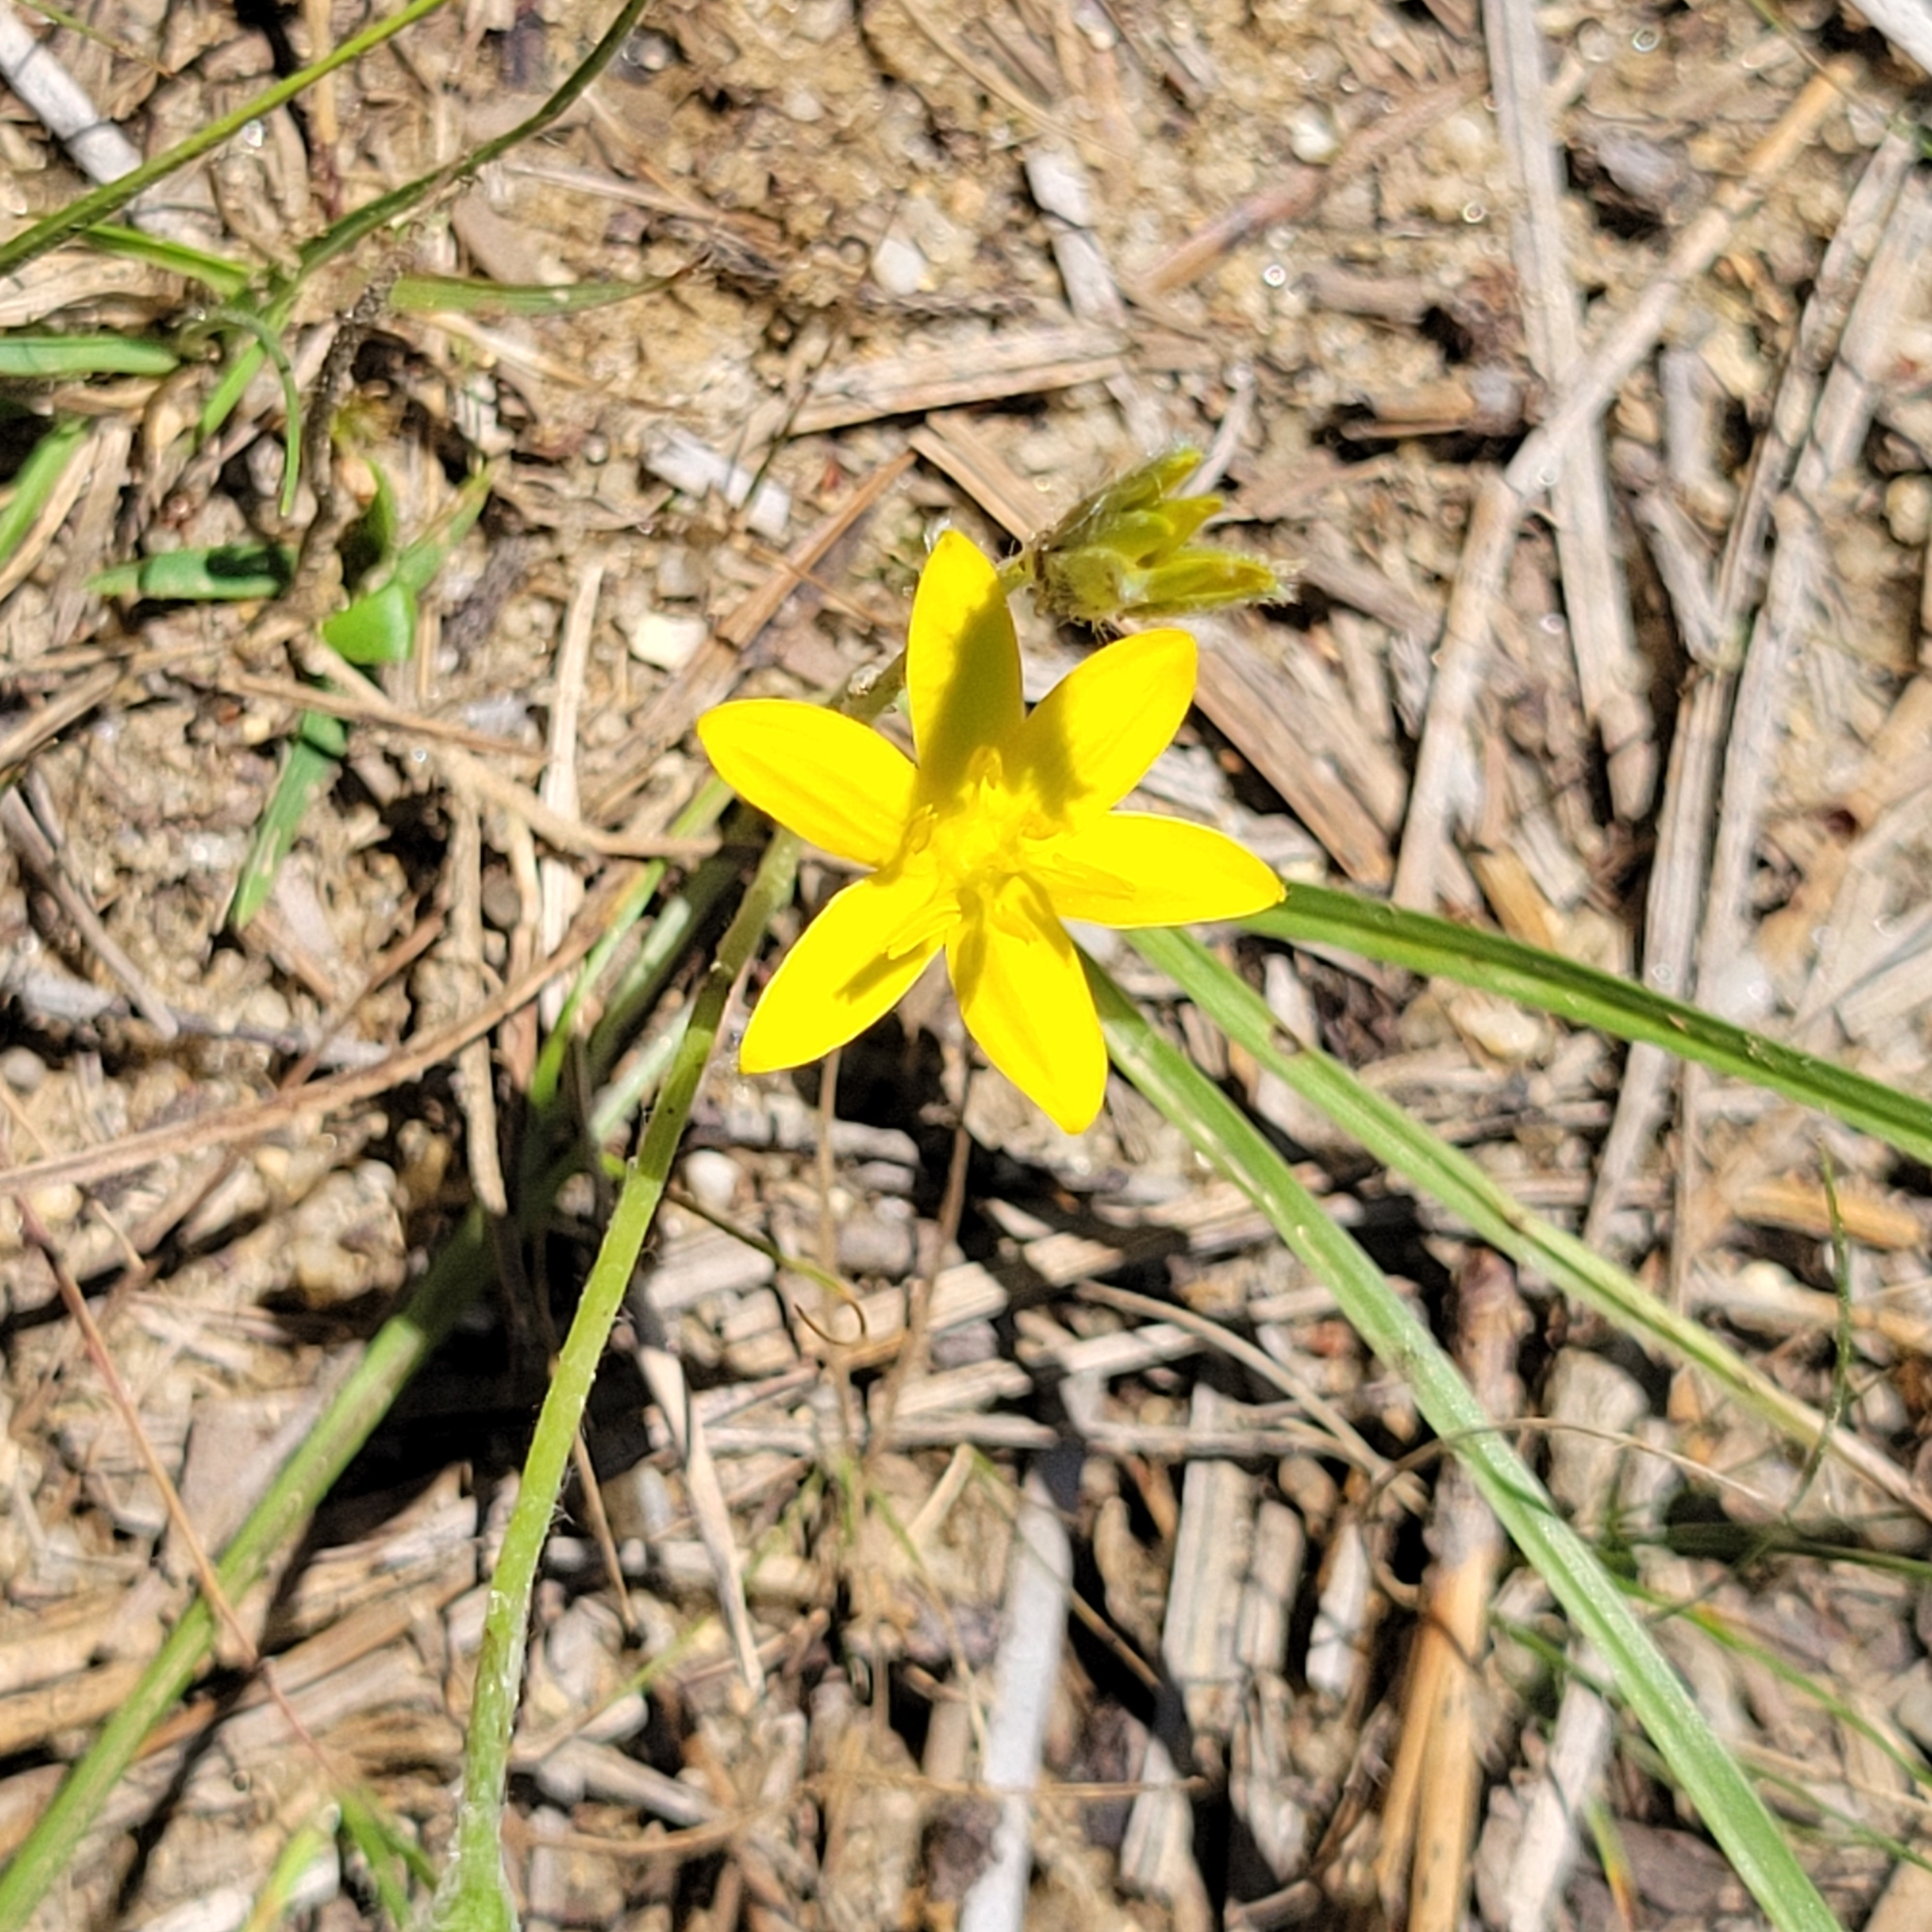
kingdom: Plantae
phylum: Tracheophyta
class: Liliopsida
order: Asparagales
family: Hypoxidaceae
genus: Hypoxis
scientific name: Hypoxis hirsuta
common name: Common goldstar
